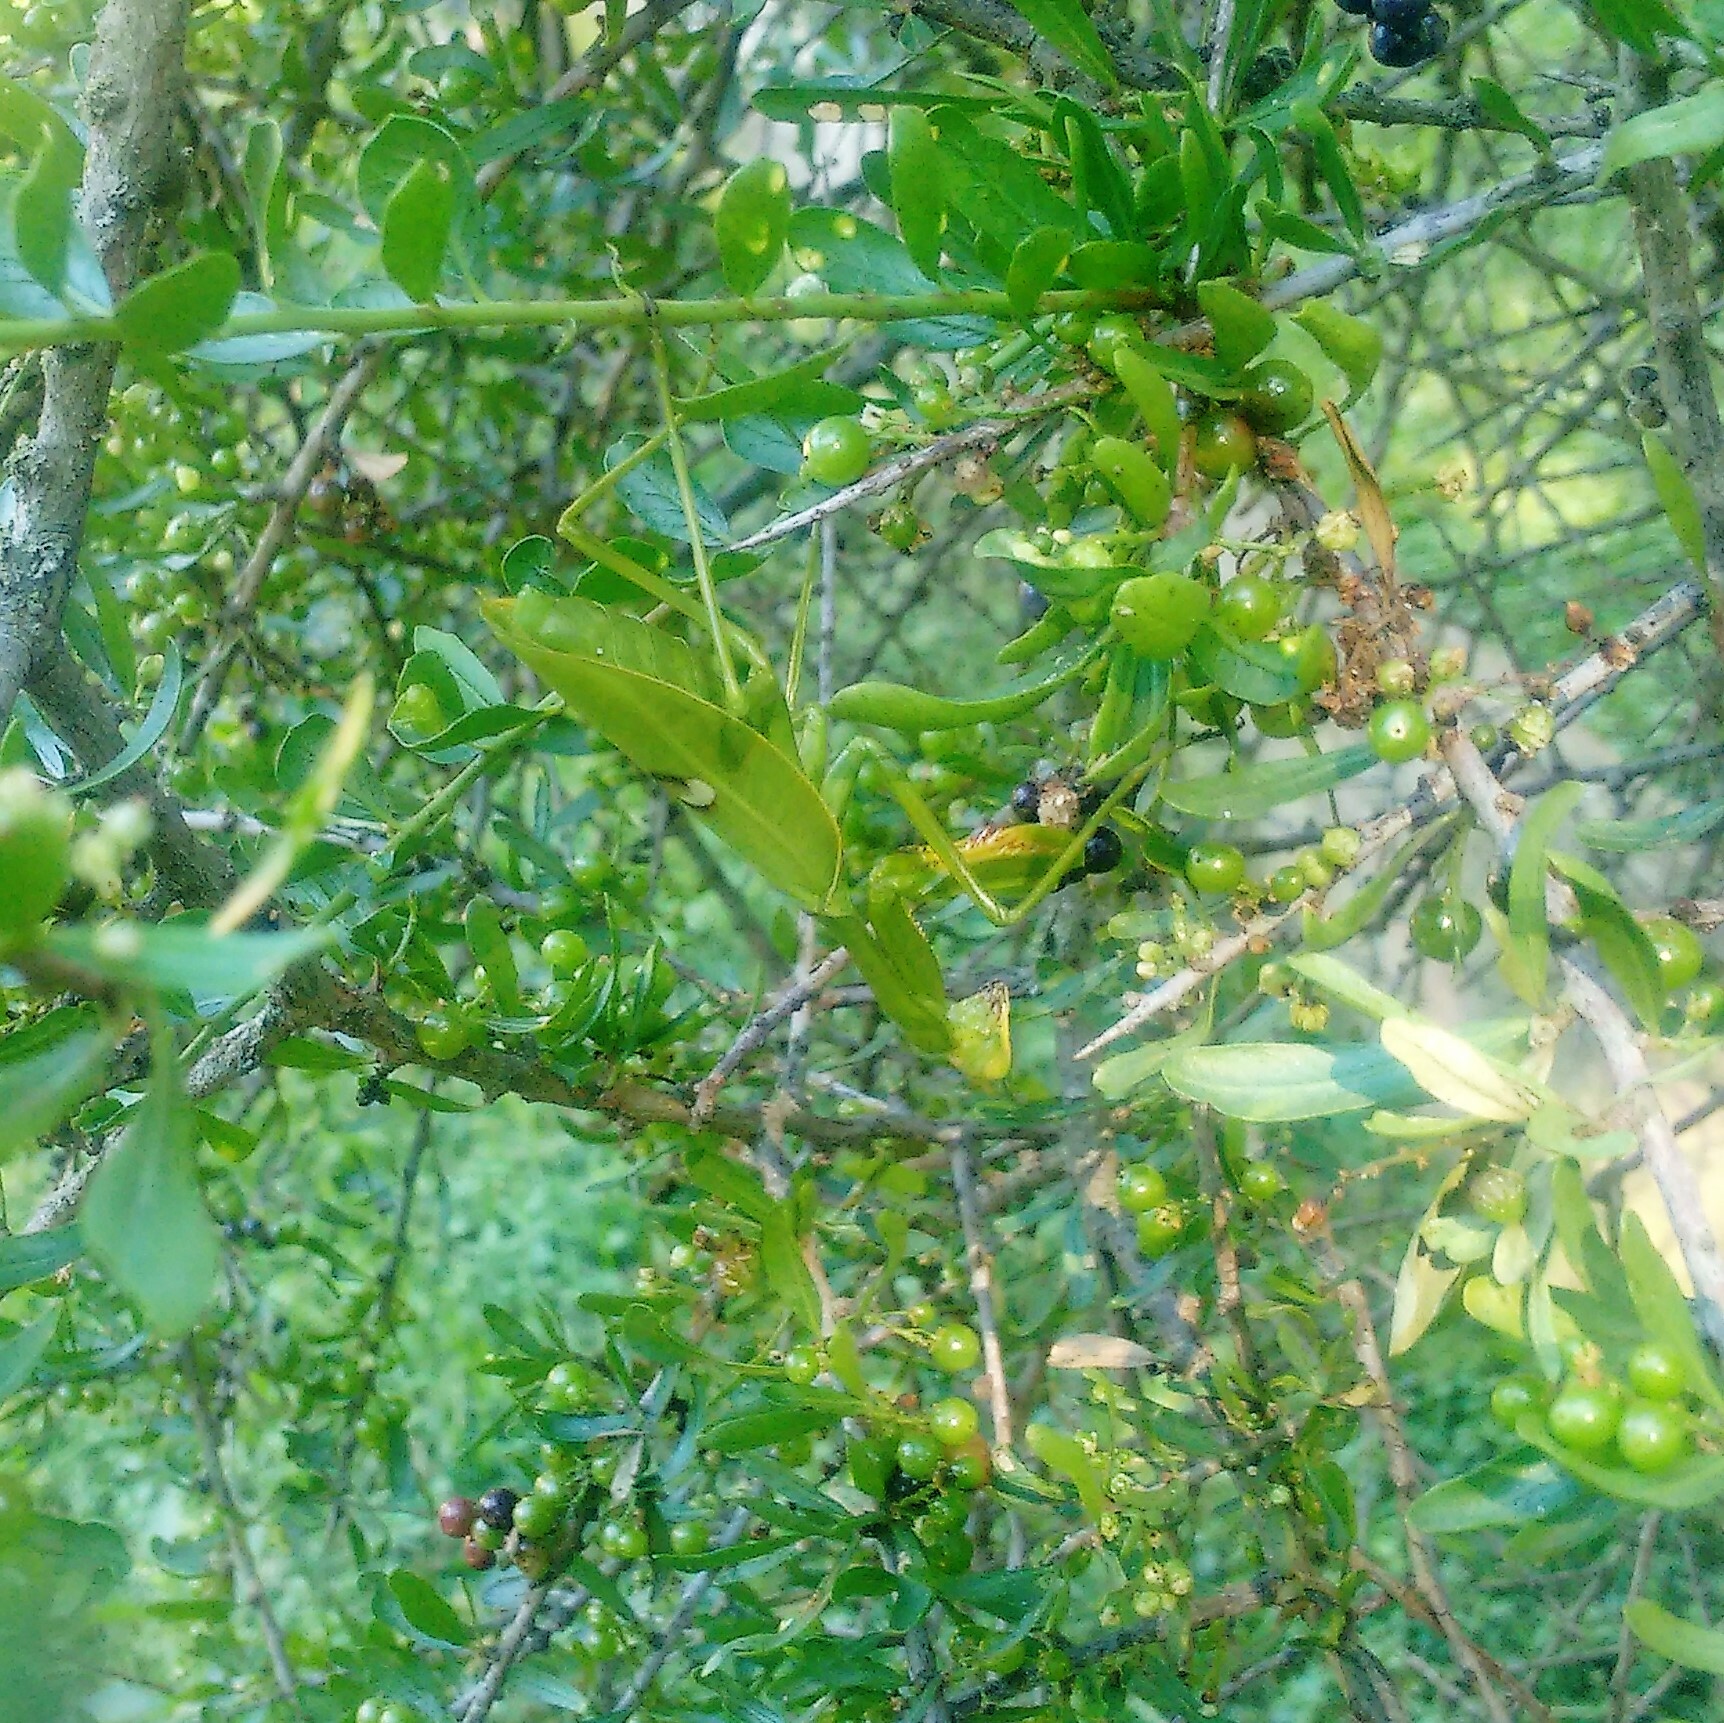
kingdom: Animalia
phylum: Arthropoda
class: Insecta
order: Mantodea
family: Mantidae
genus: Stagmatoptera
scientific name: Stagmatoptera hyaloptera
